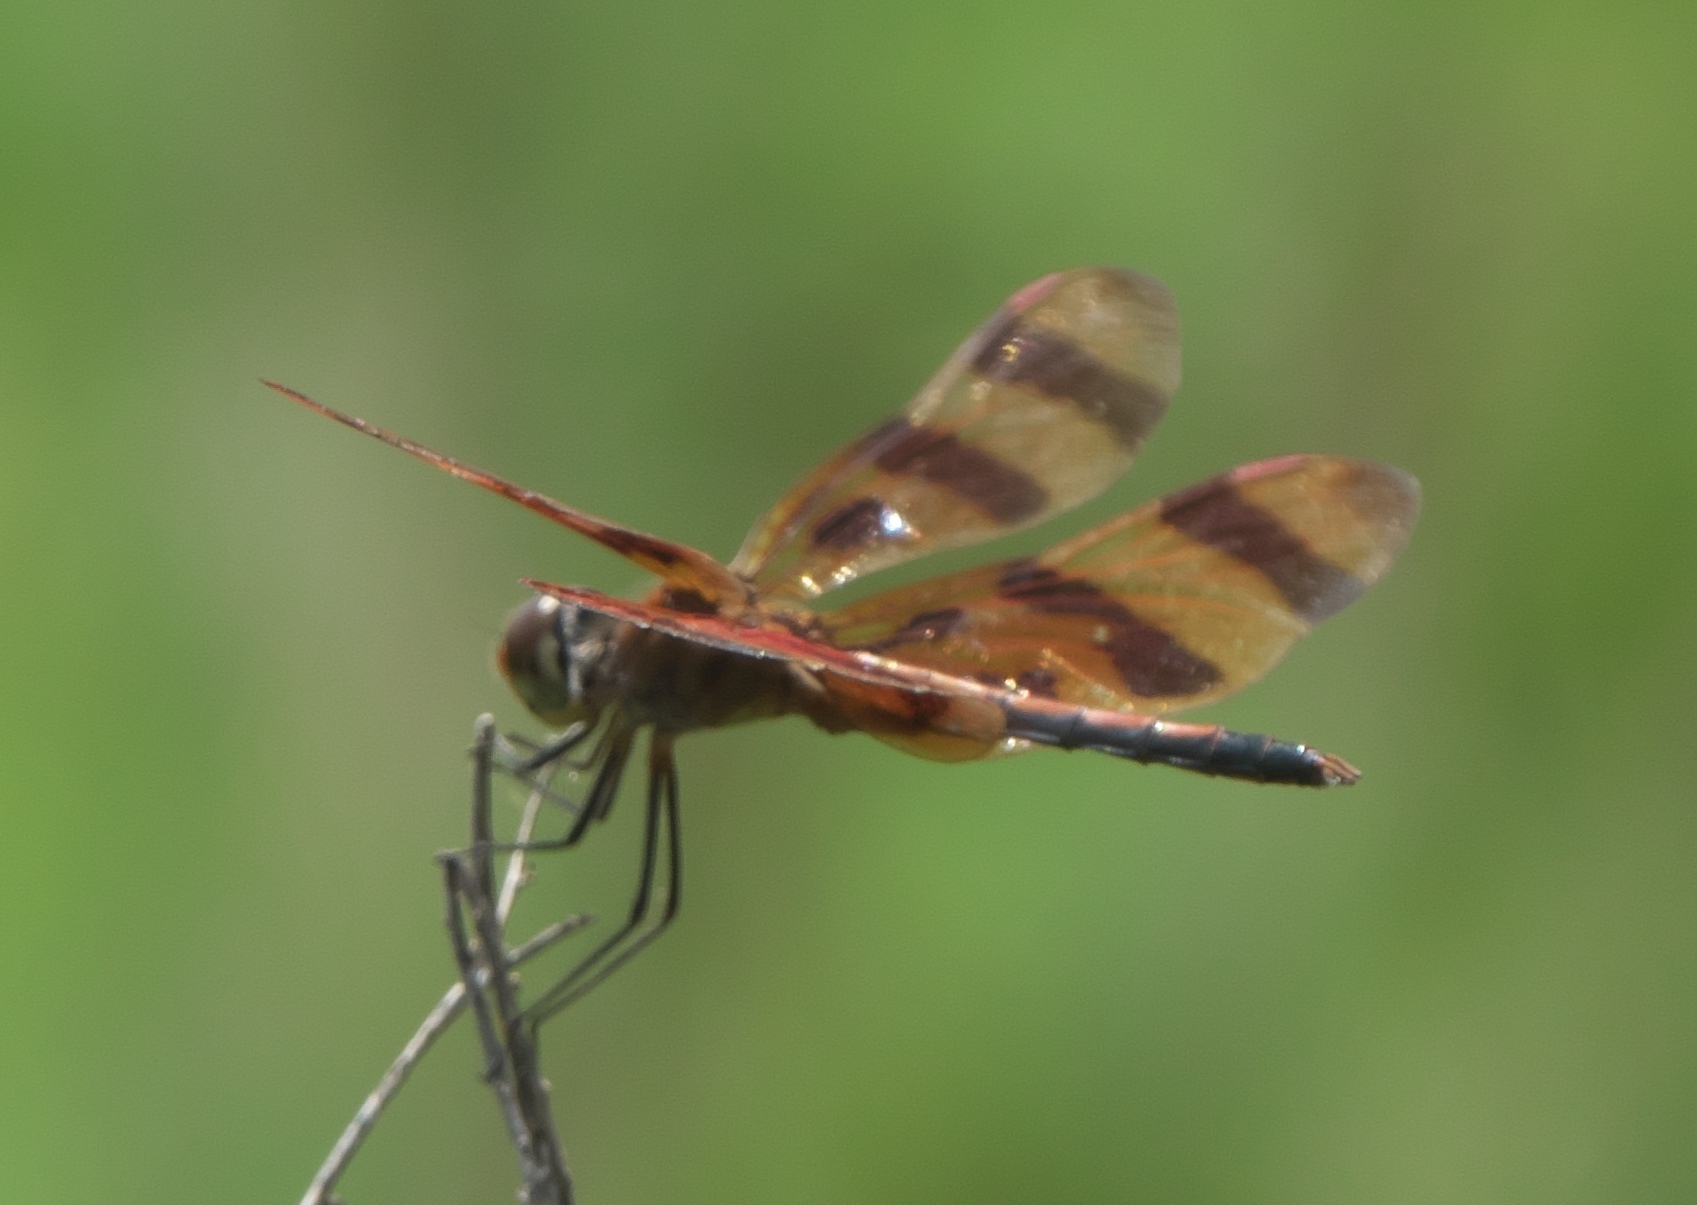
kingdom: Animalia
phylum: Arthropoda
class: Insecta
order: Odonata
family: Libellulidae
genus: Celithemis
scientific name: Celithemis eponina
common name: Halloween pennant
